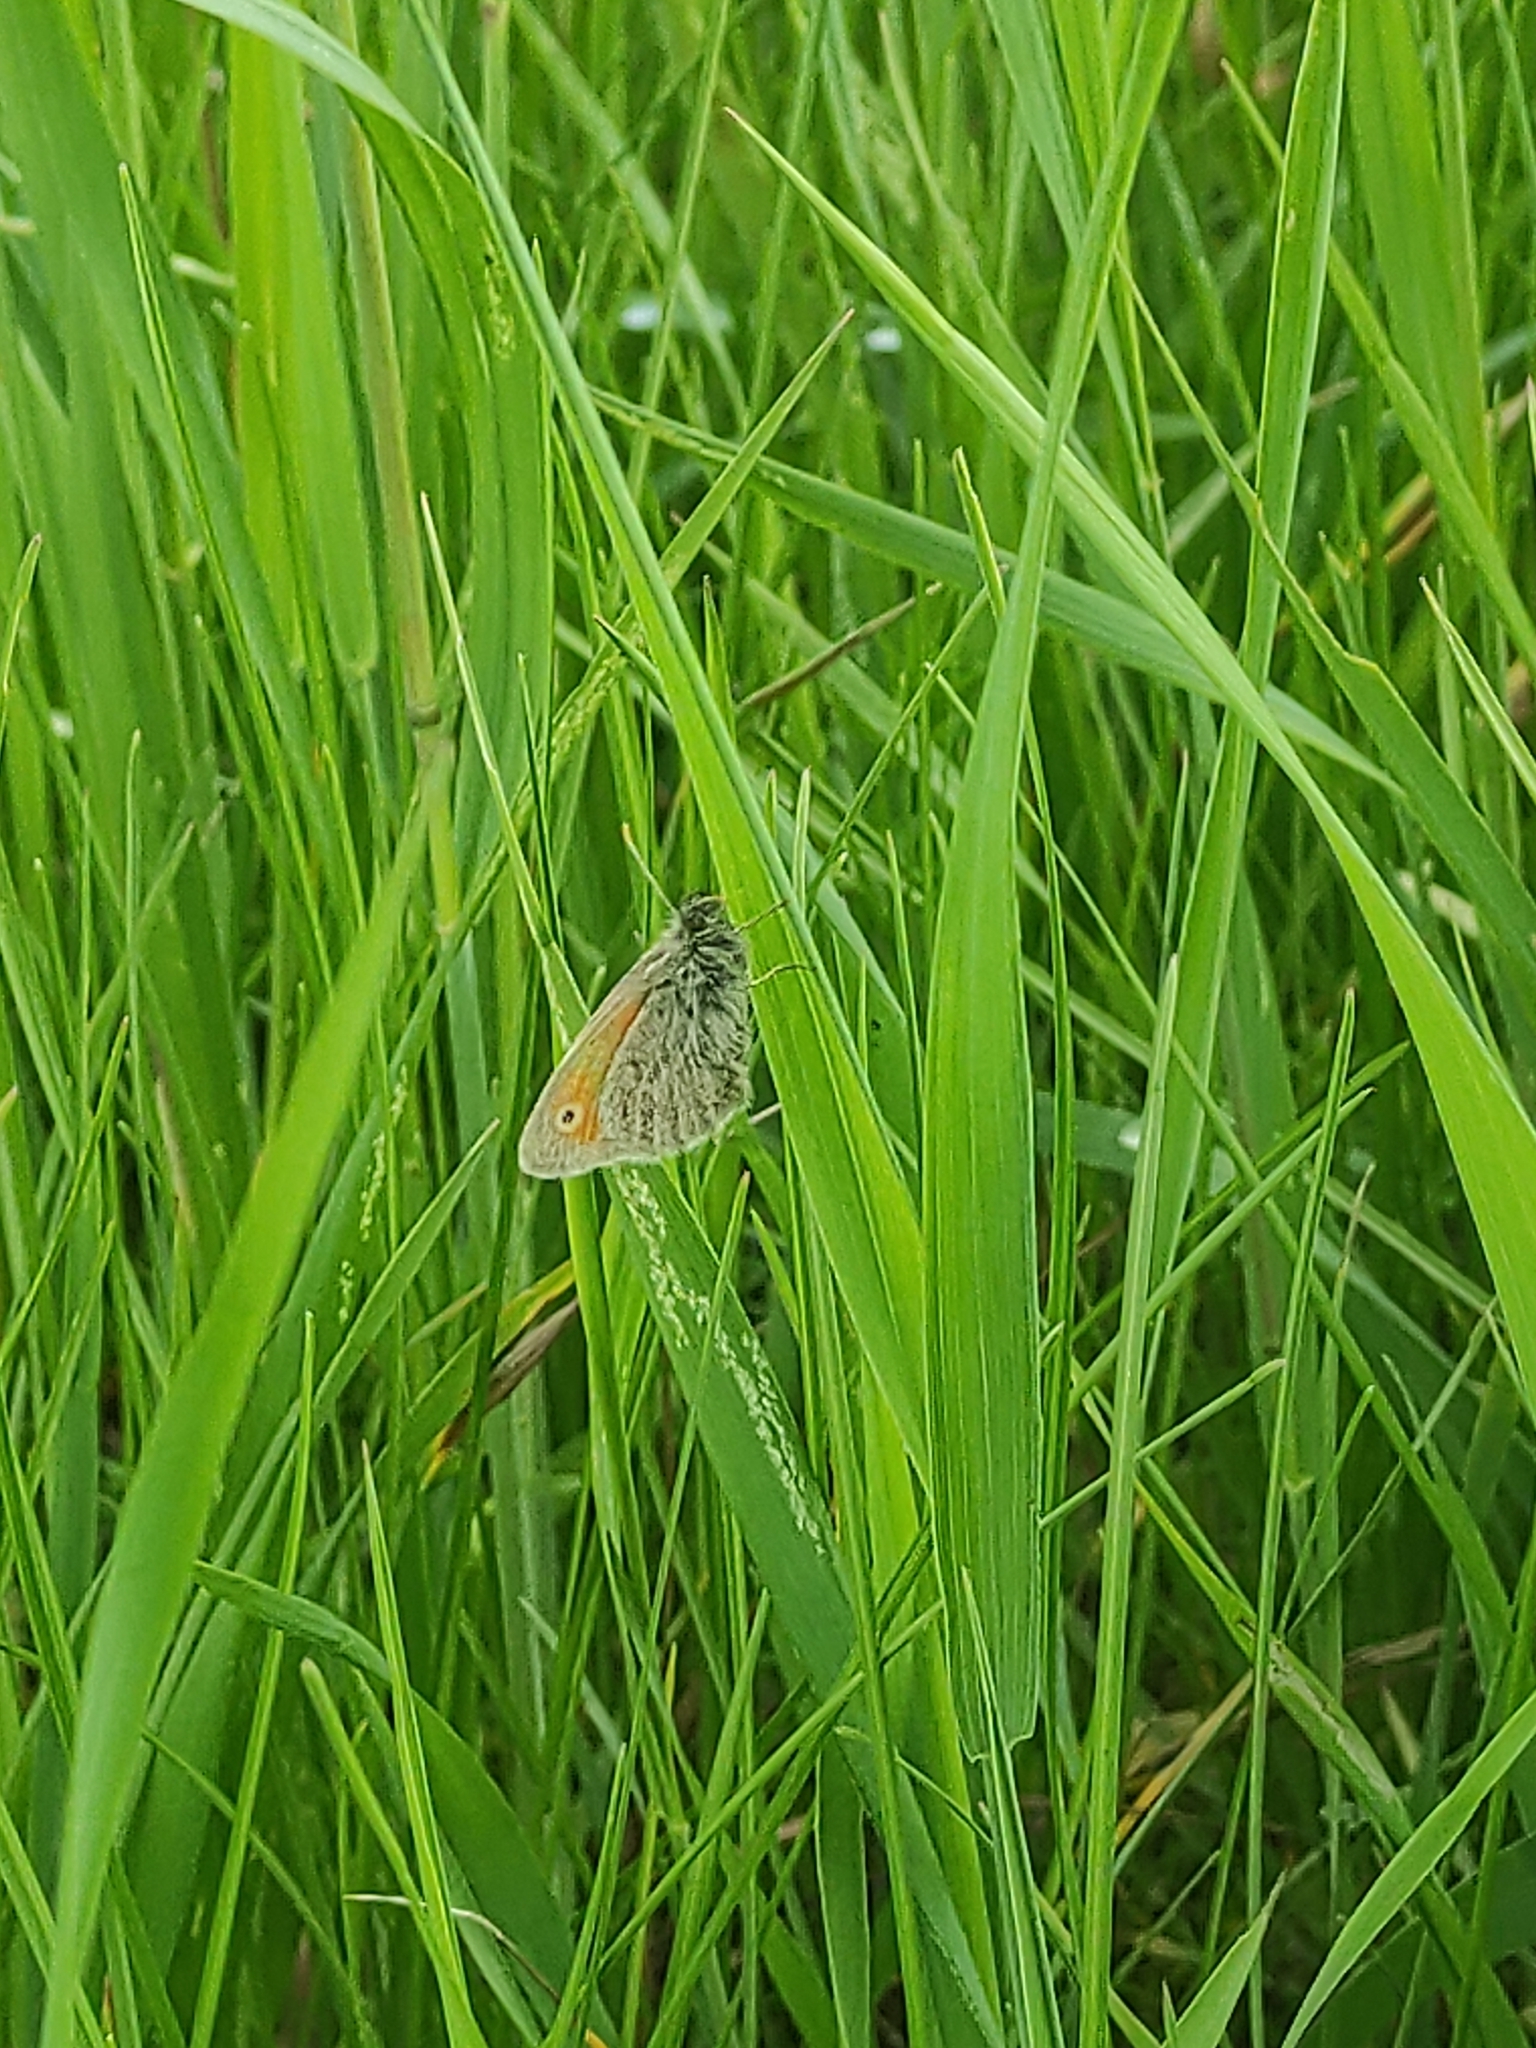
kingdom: Animalia
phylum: Arthropoda
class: Insecta
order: Lepidoptera
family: Nymphalidae
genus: Coenonympha
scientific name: Coenonympha pamphilus
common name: Small heath
